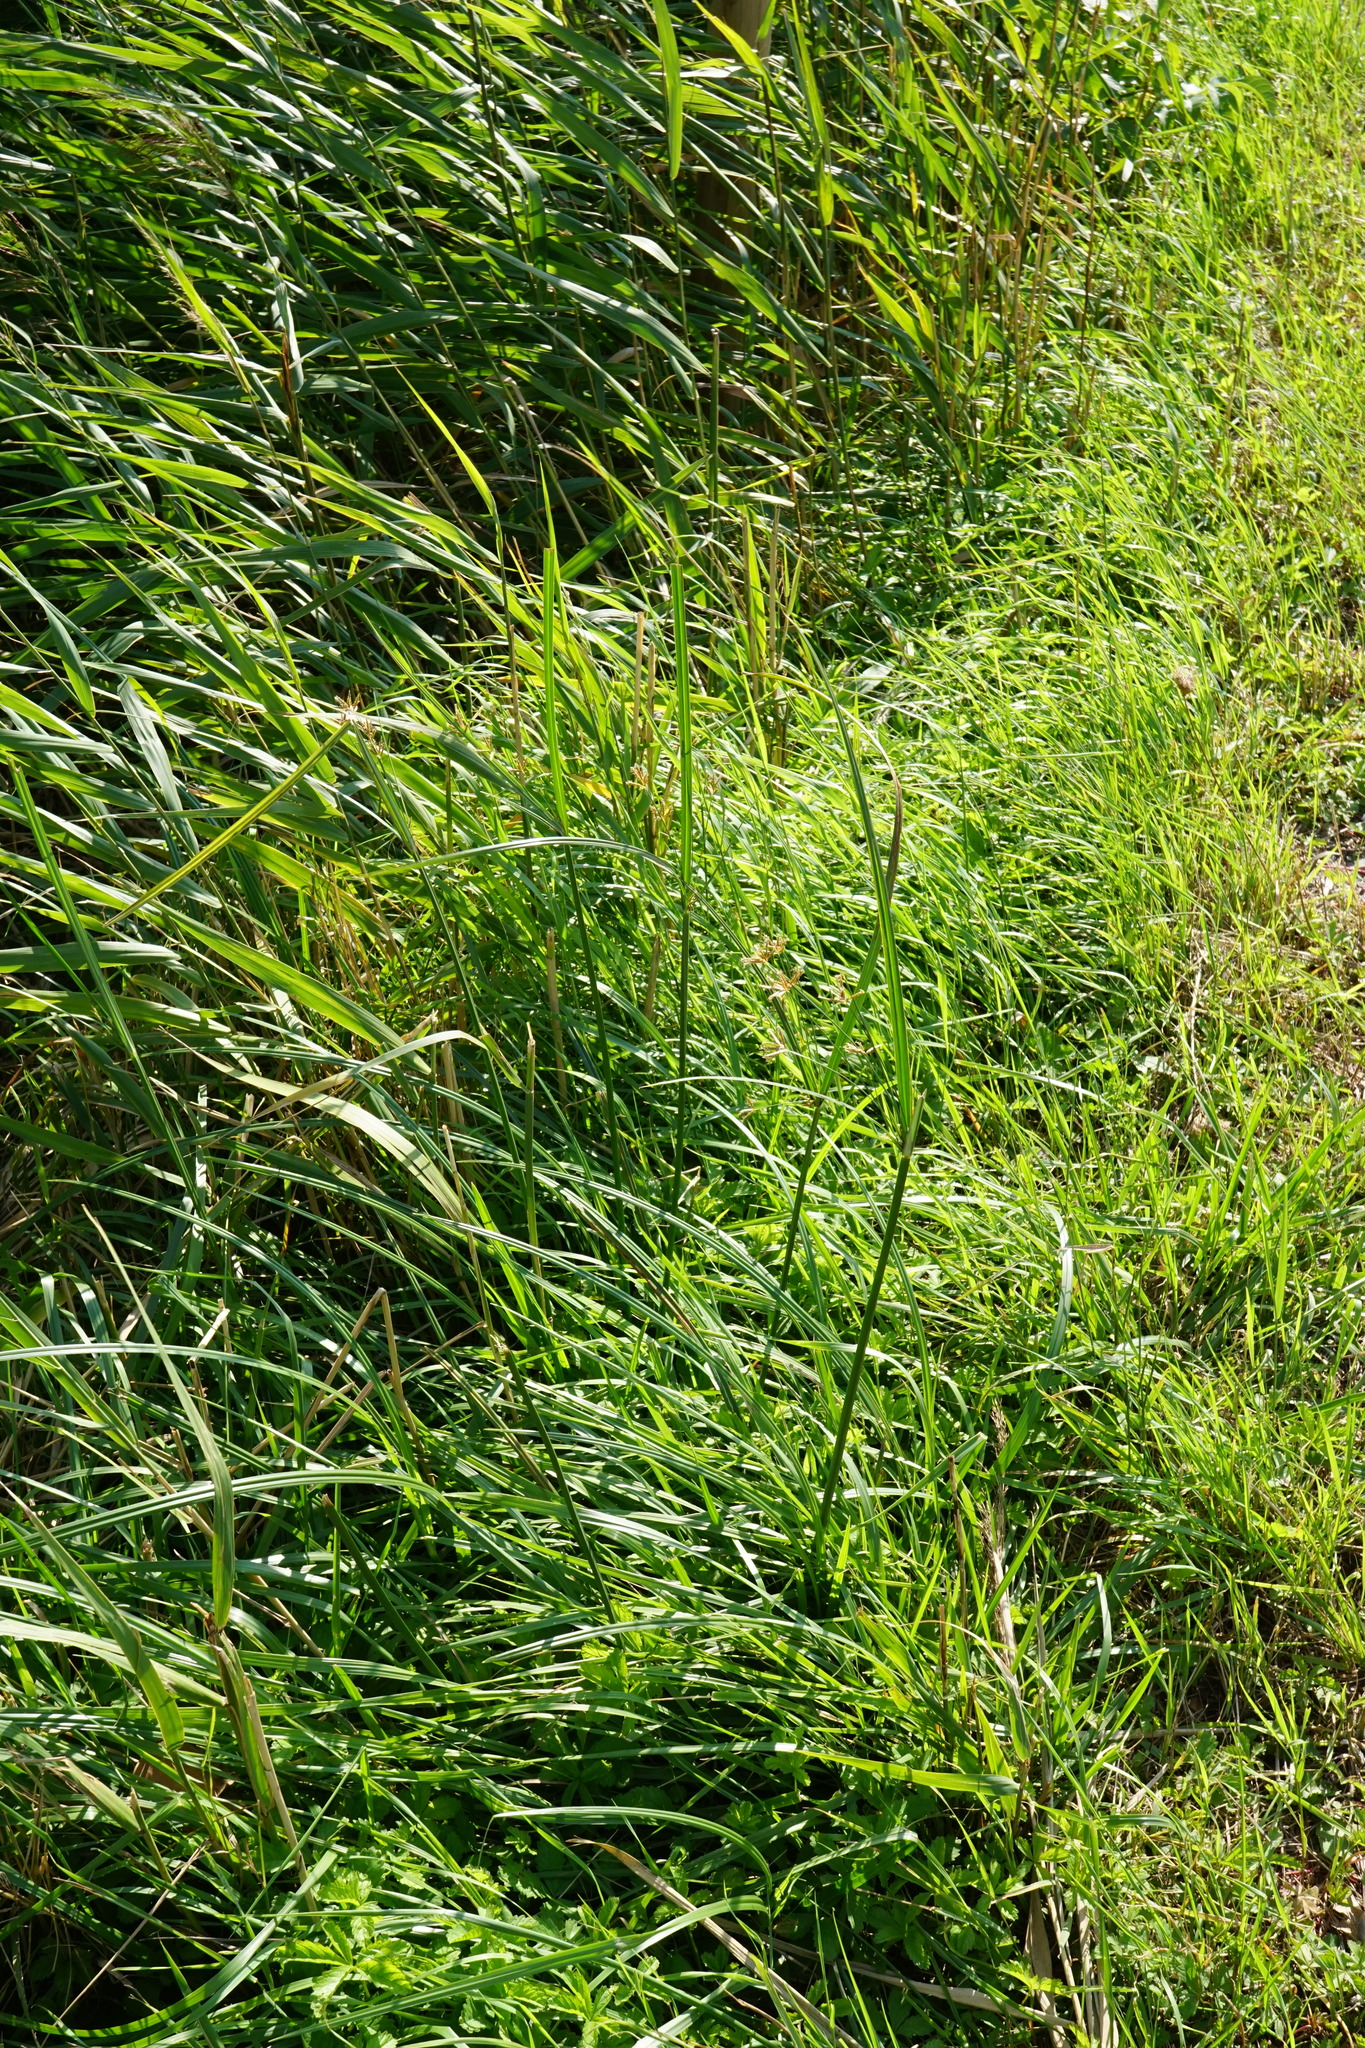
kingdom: Plantae
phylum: Tracheophyta
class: Liliopsida
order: Poales
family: Cyperaceae
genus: Cyperus
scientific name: Cyperus longus
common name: Galingale
